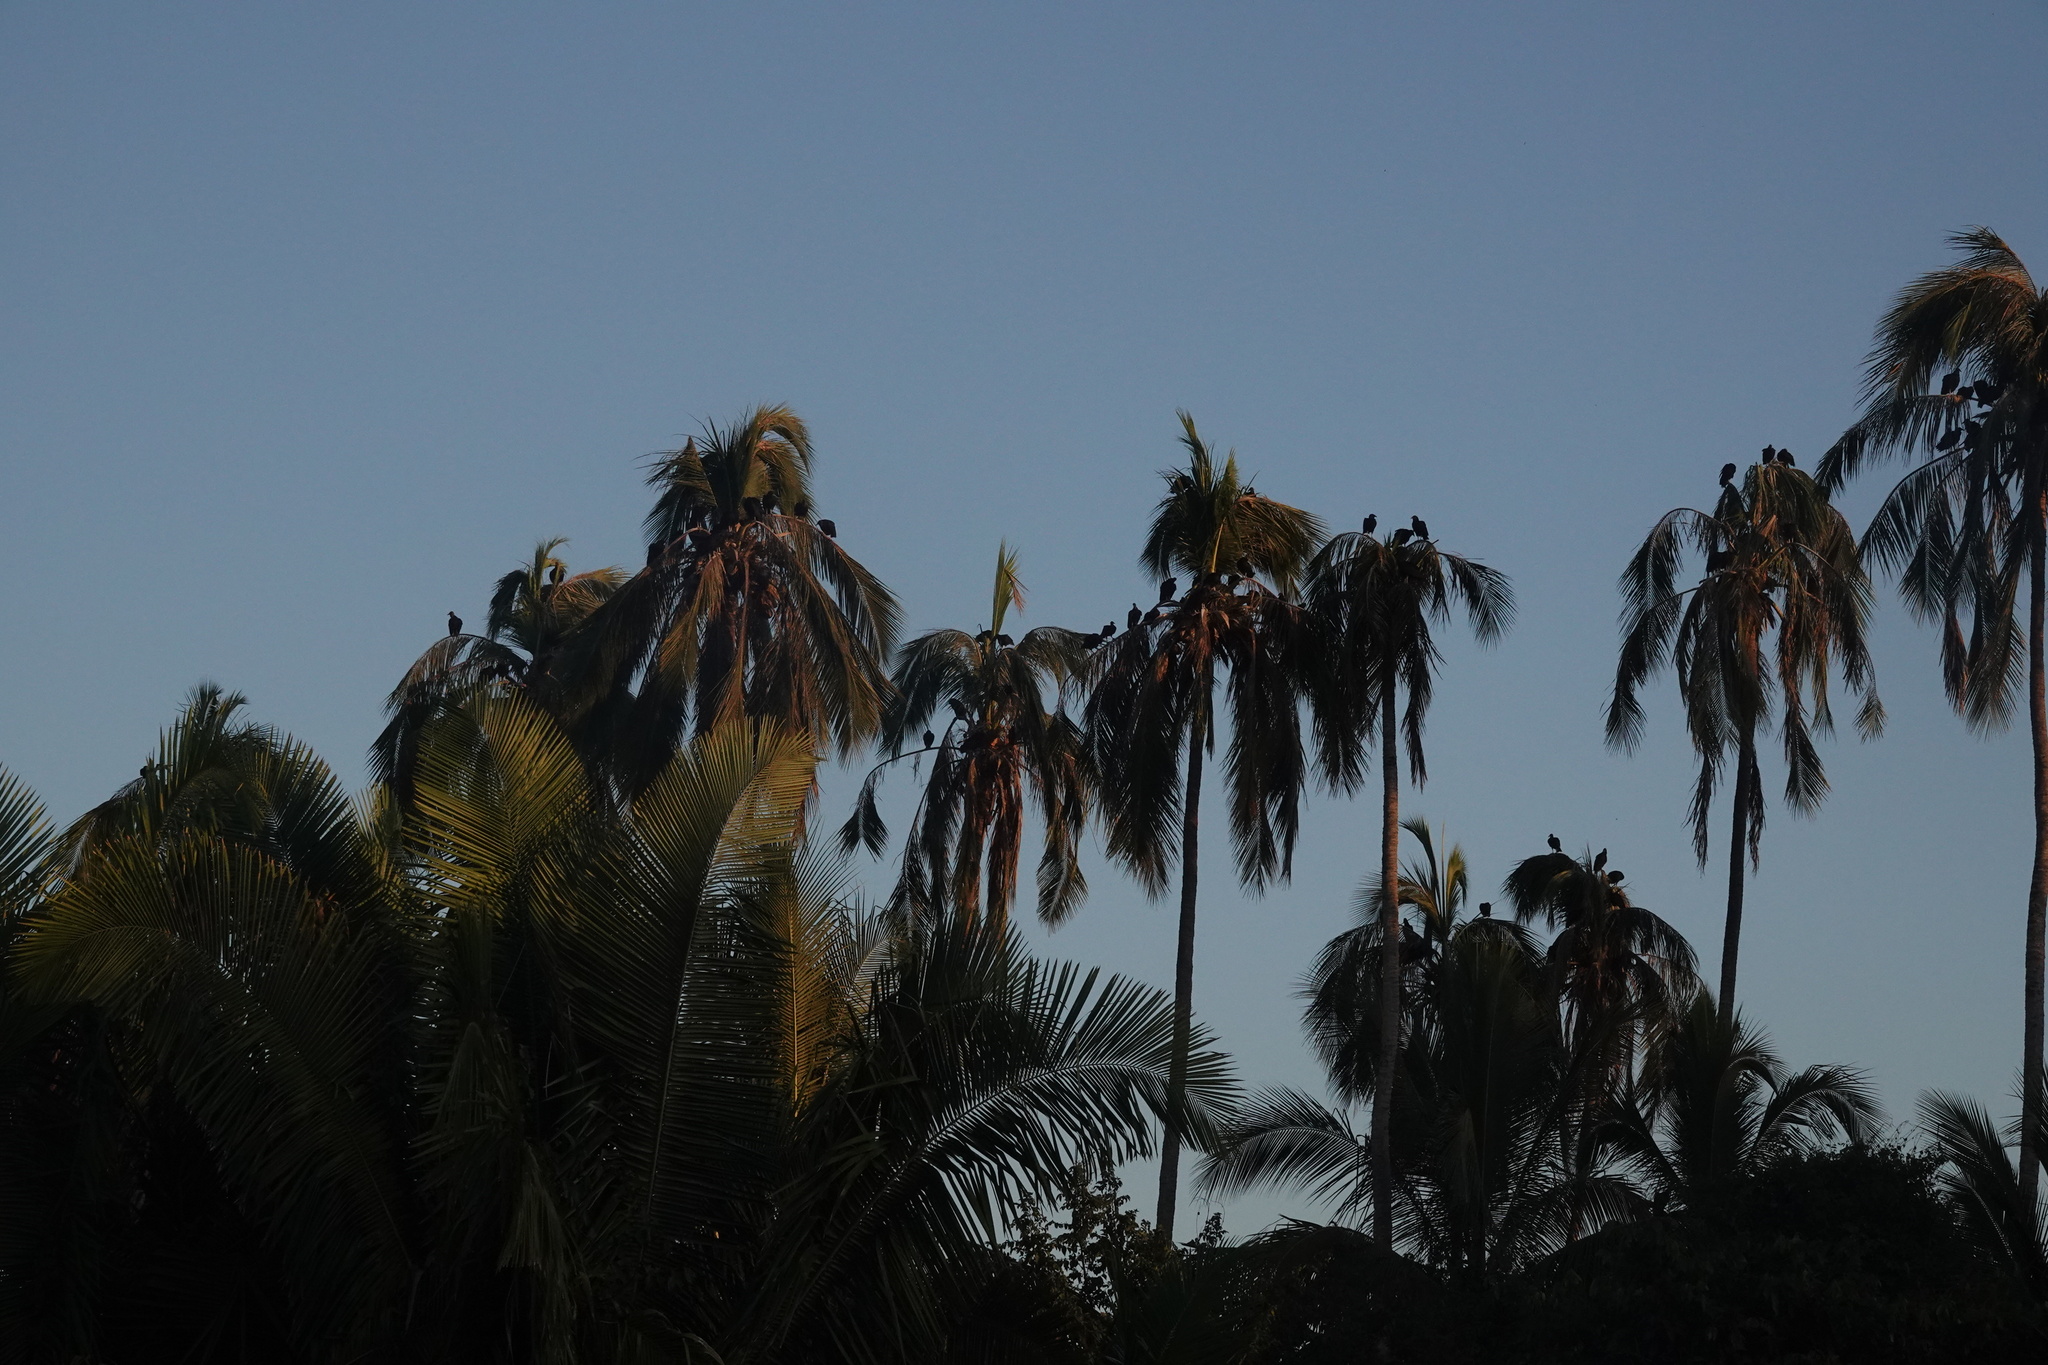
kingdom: Animalia
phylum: Chordata
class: Aves
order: Accipitriformes
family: Cathartidae
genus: Coragyps
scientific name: Coragyps atratus
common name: Black vulture
